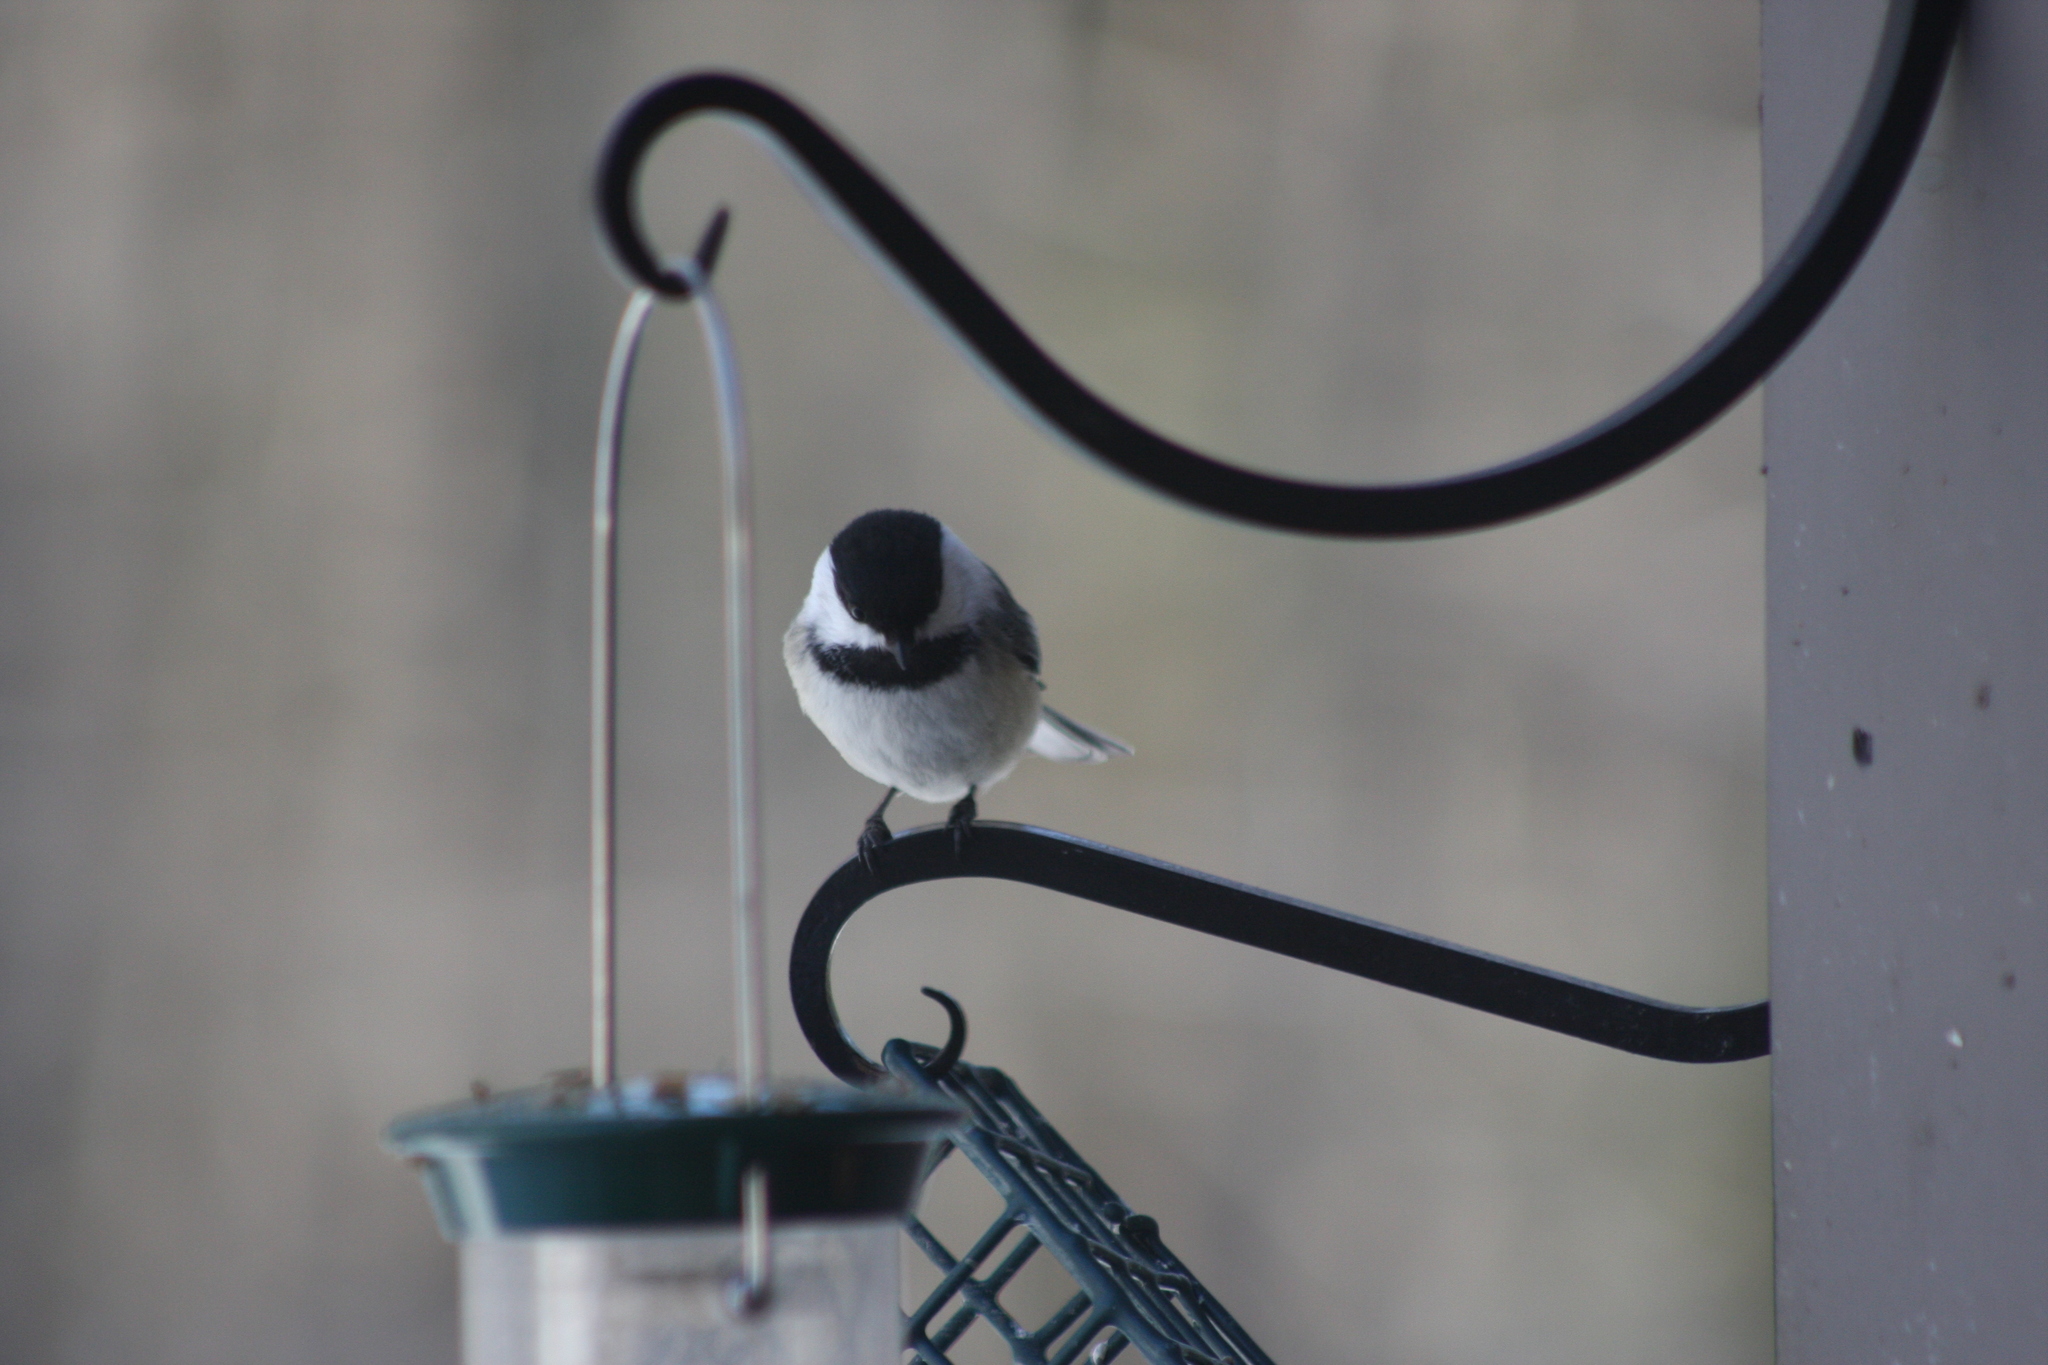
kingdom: Animalia
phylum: Chordata
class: Aves
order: Passeriformes
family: Paridae
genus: Poecile
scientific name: Poecile atricapillus
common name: Black-capped chickadee
